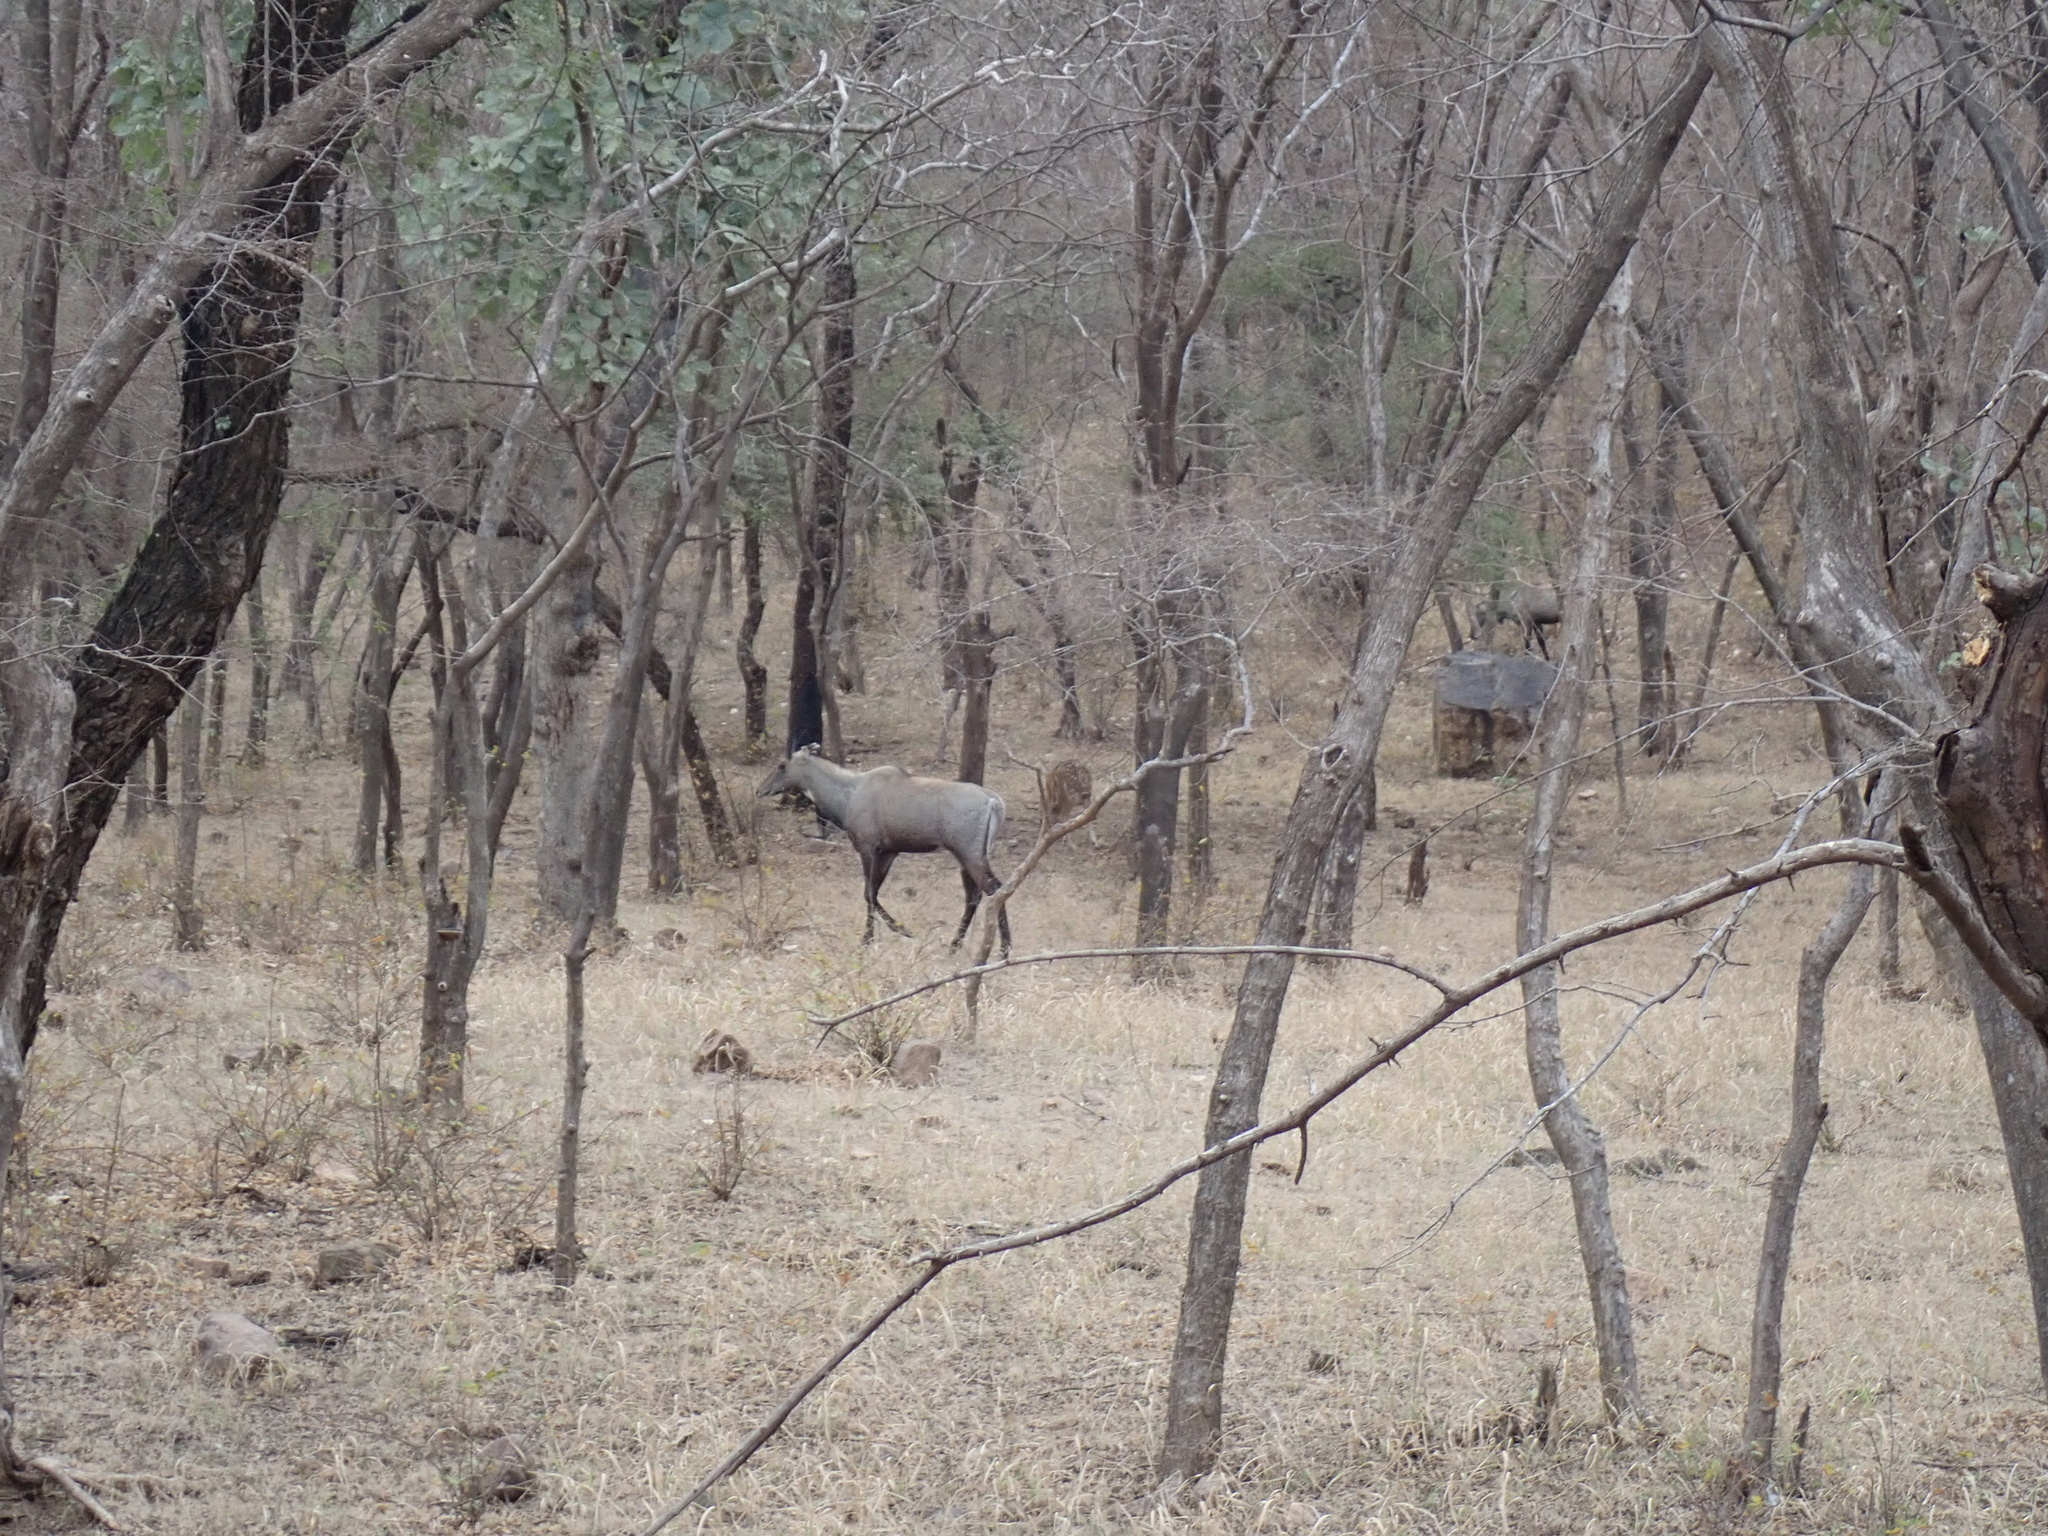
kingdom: Animalia
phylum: Chordata
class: Mammalia
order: Artiodactyla
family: Bovidae
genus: Boselaphus
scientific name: Boselaphus tragocamelus
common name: Nilgai
